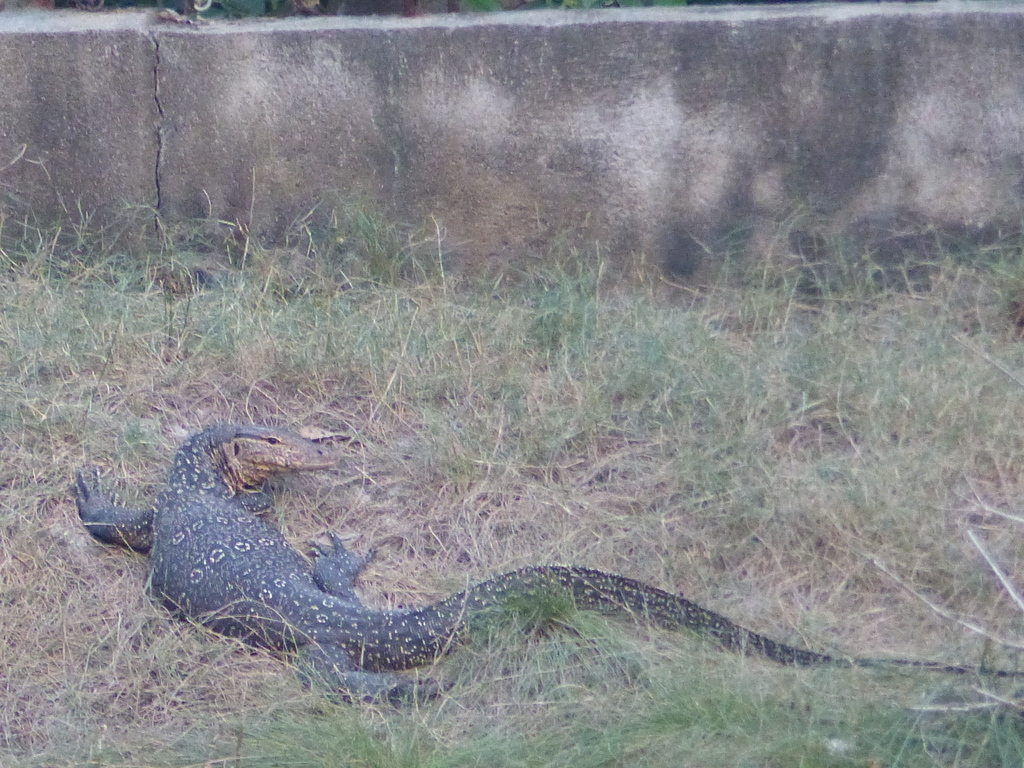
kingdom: Animalia
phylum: Chordata
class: Squamata
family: Varanidae
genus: Varanus
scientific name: Varanus salvator
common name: Common water monitor
